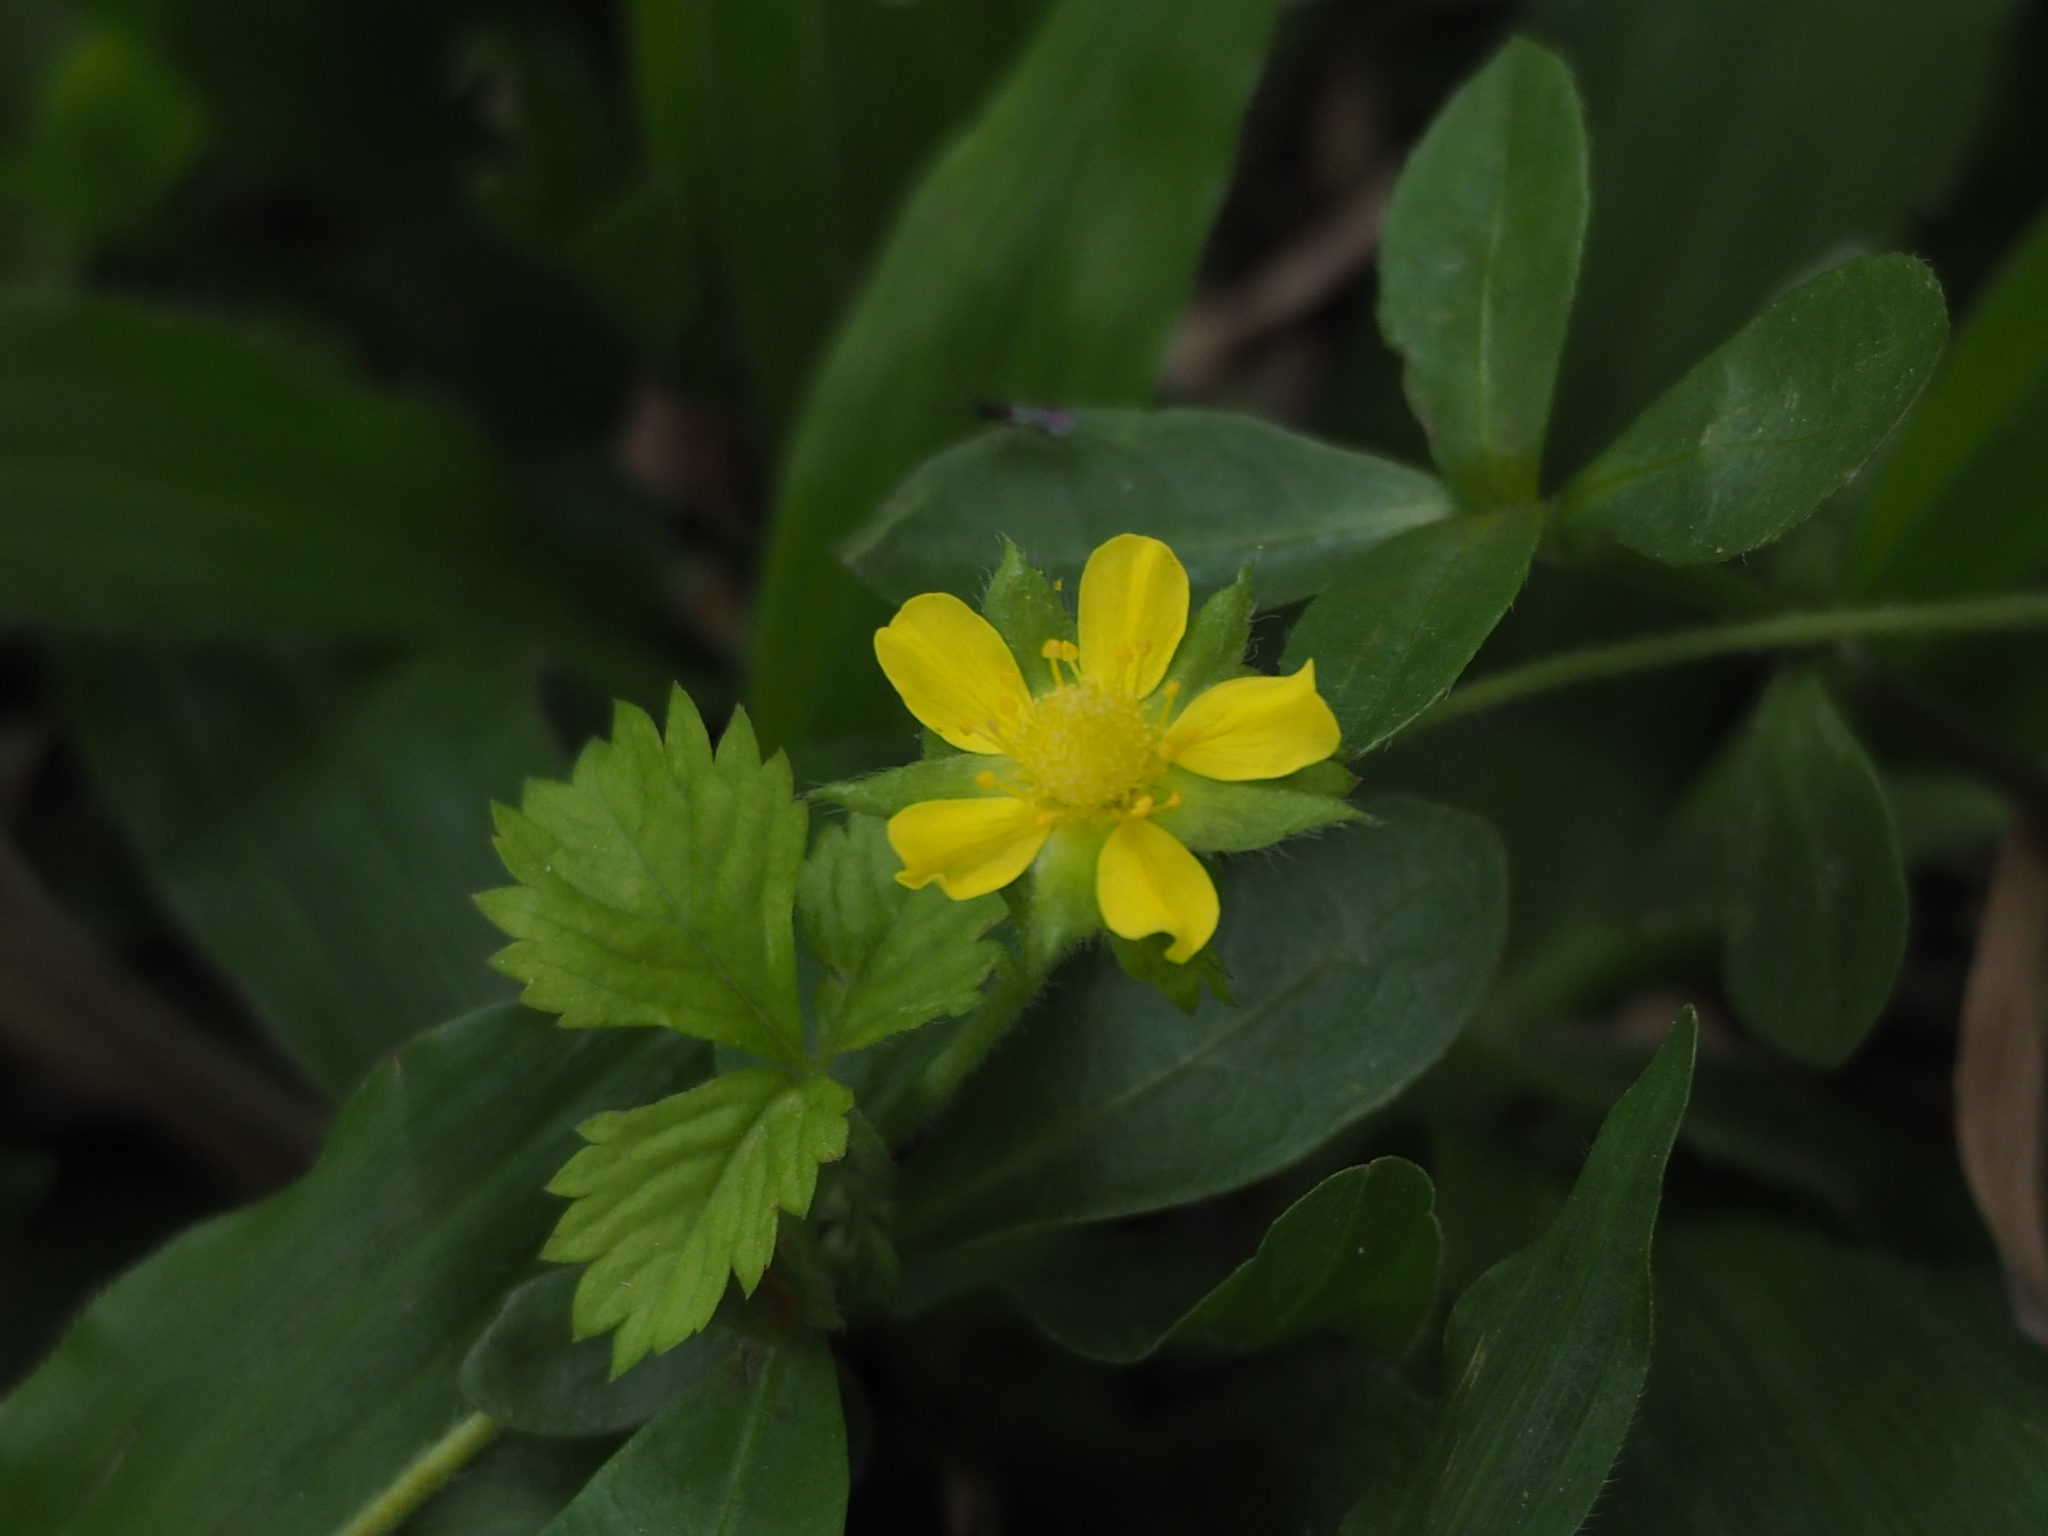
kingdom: Plantae
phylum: Tracheophyta
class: Magnoliopsida
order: Rosales
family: Rosaceae
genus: Potentilla
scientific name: Potentilla wallichiana
